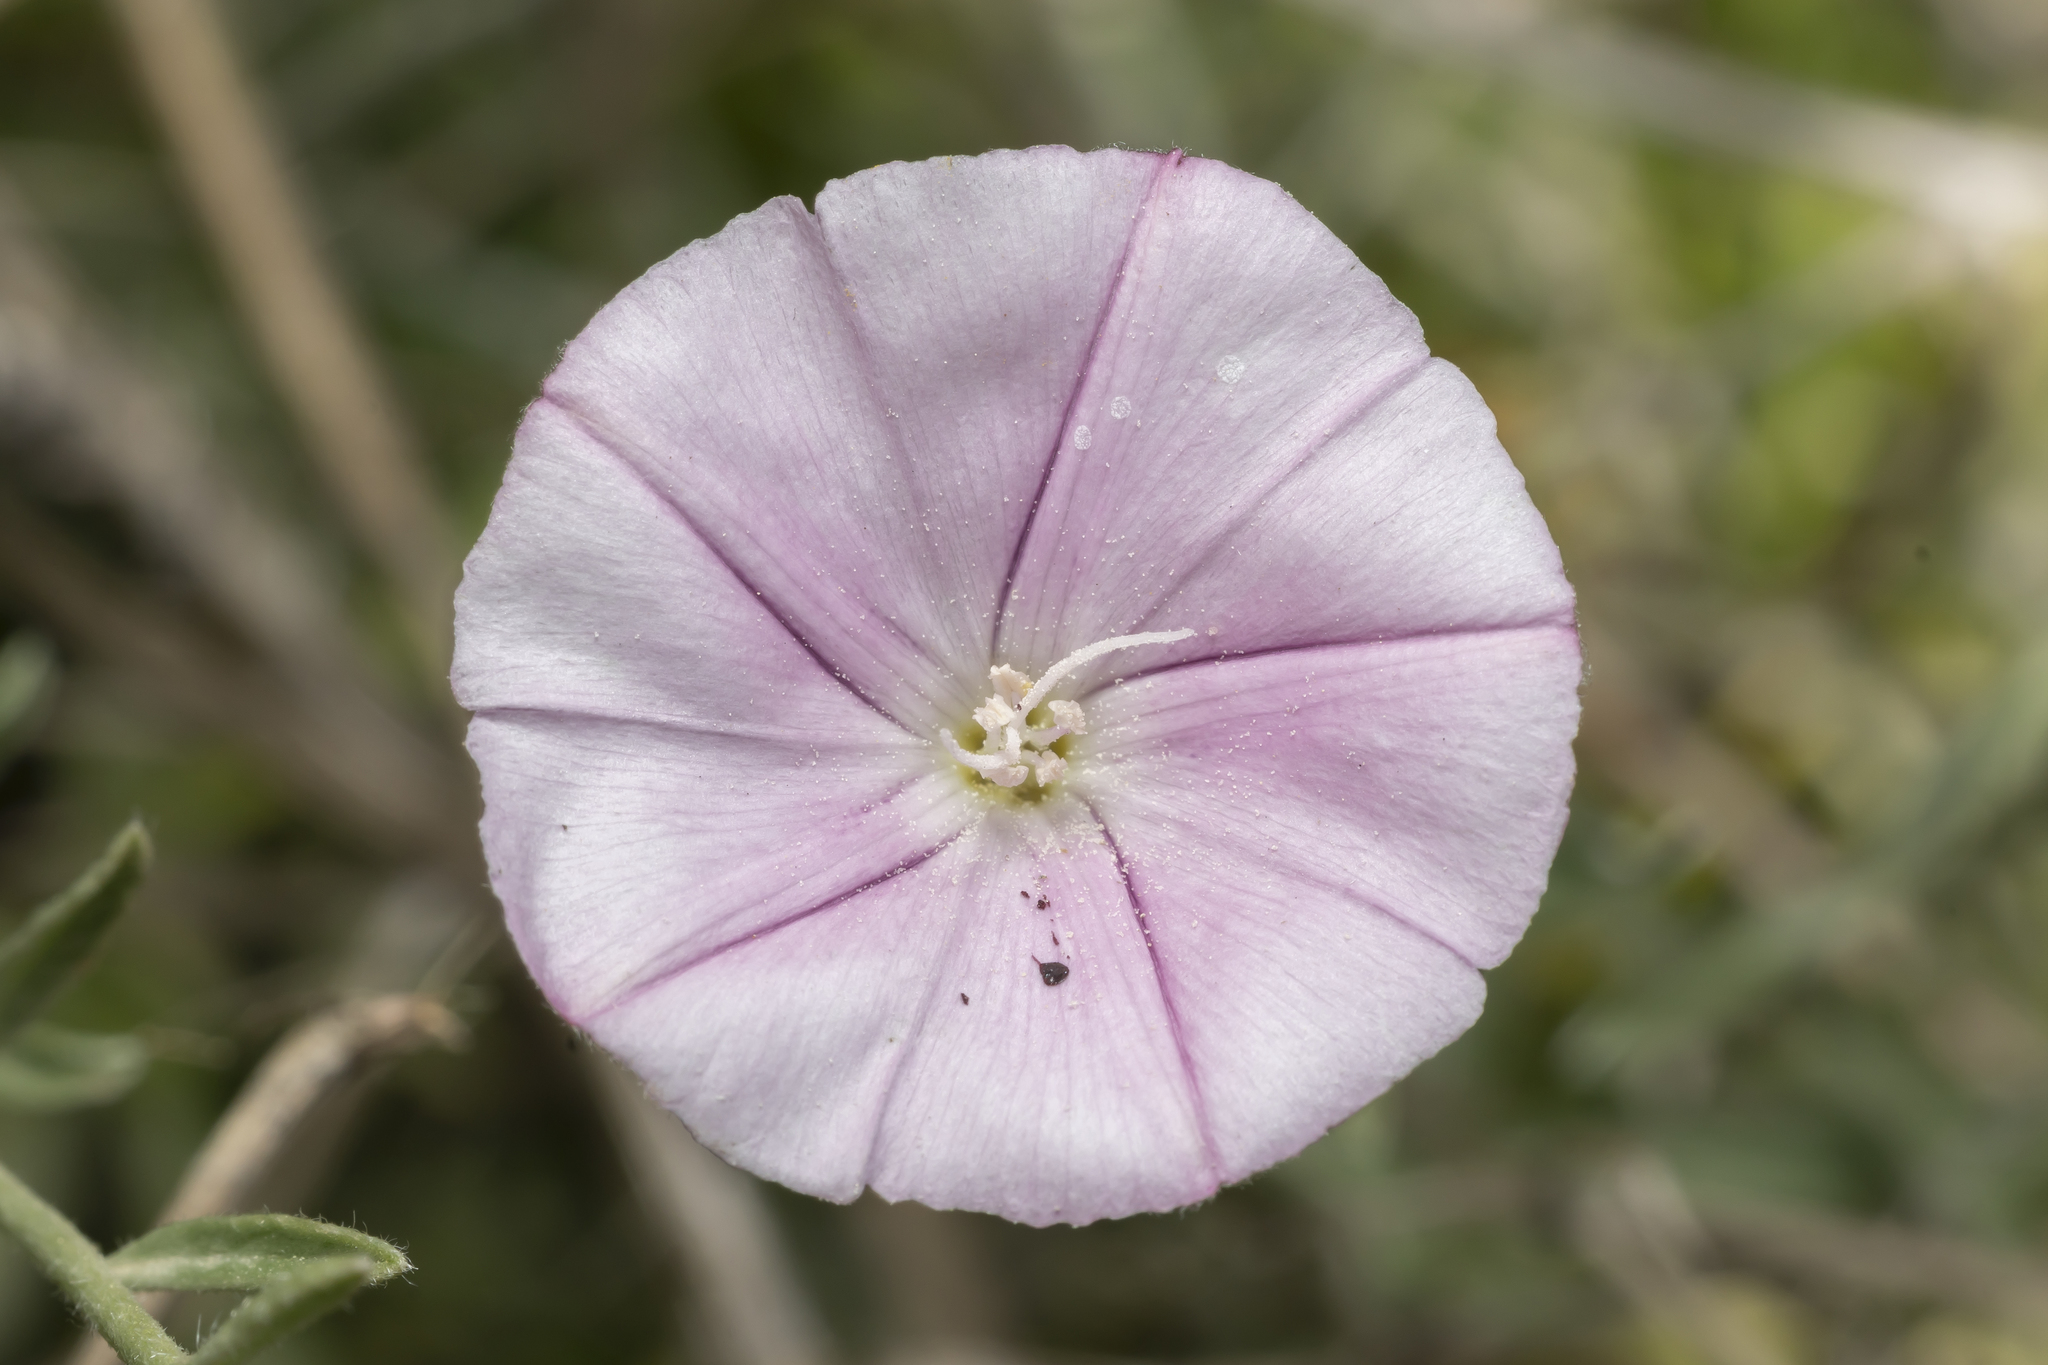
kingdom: Plantae
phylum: Tracheophyta
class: Magnoliopsida
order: Solanales
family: Convolvulaceae
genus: Convolvulus
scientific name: Convolvulus oleifolius
